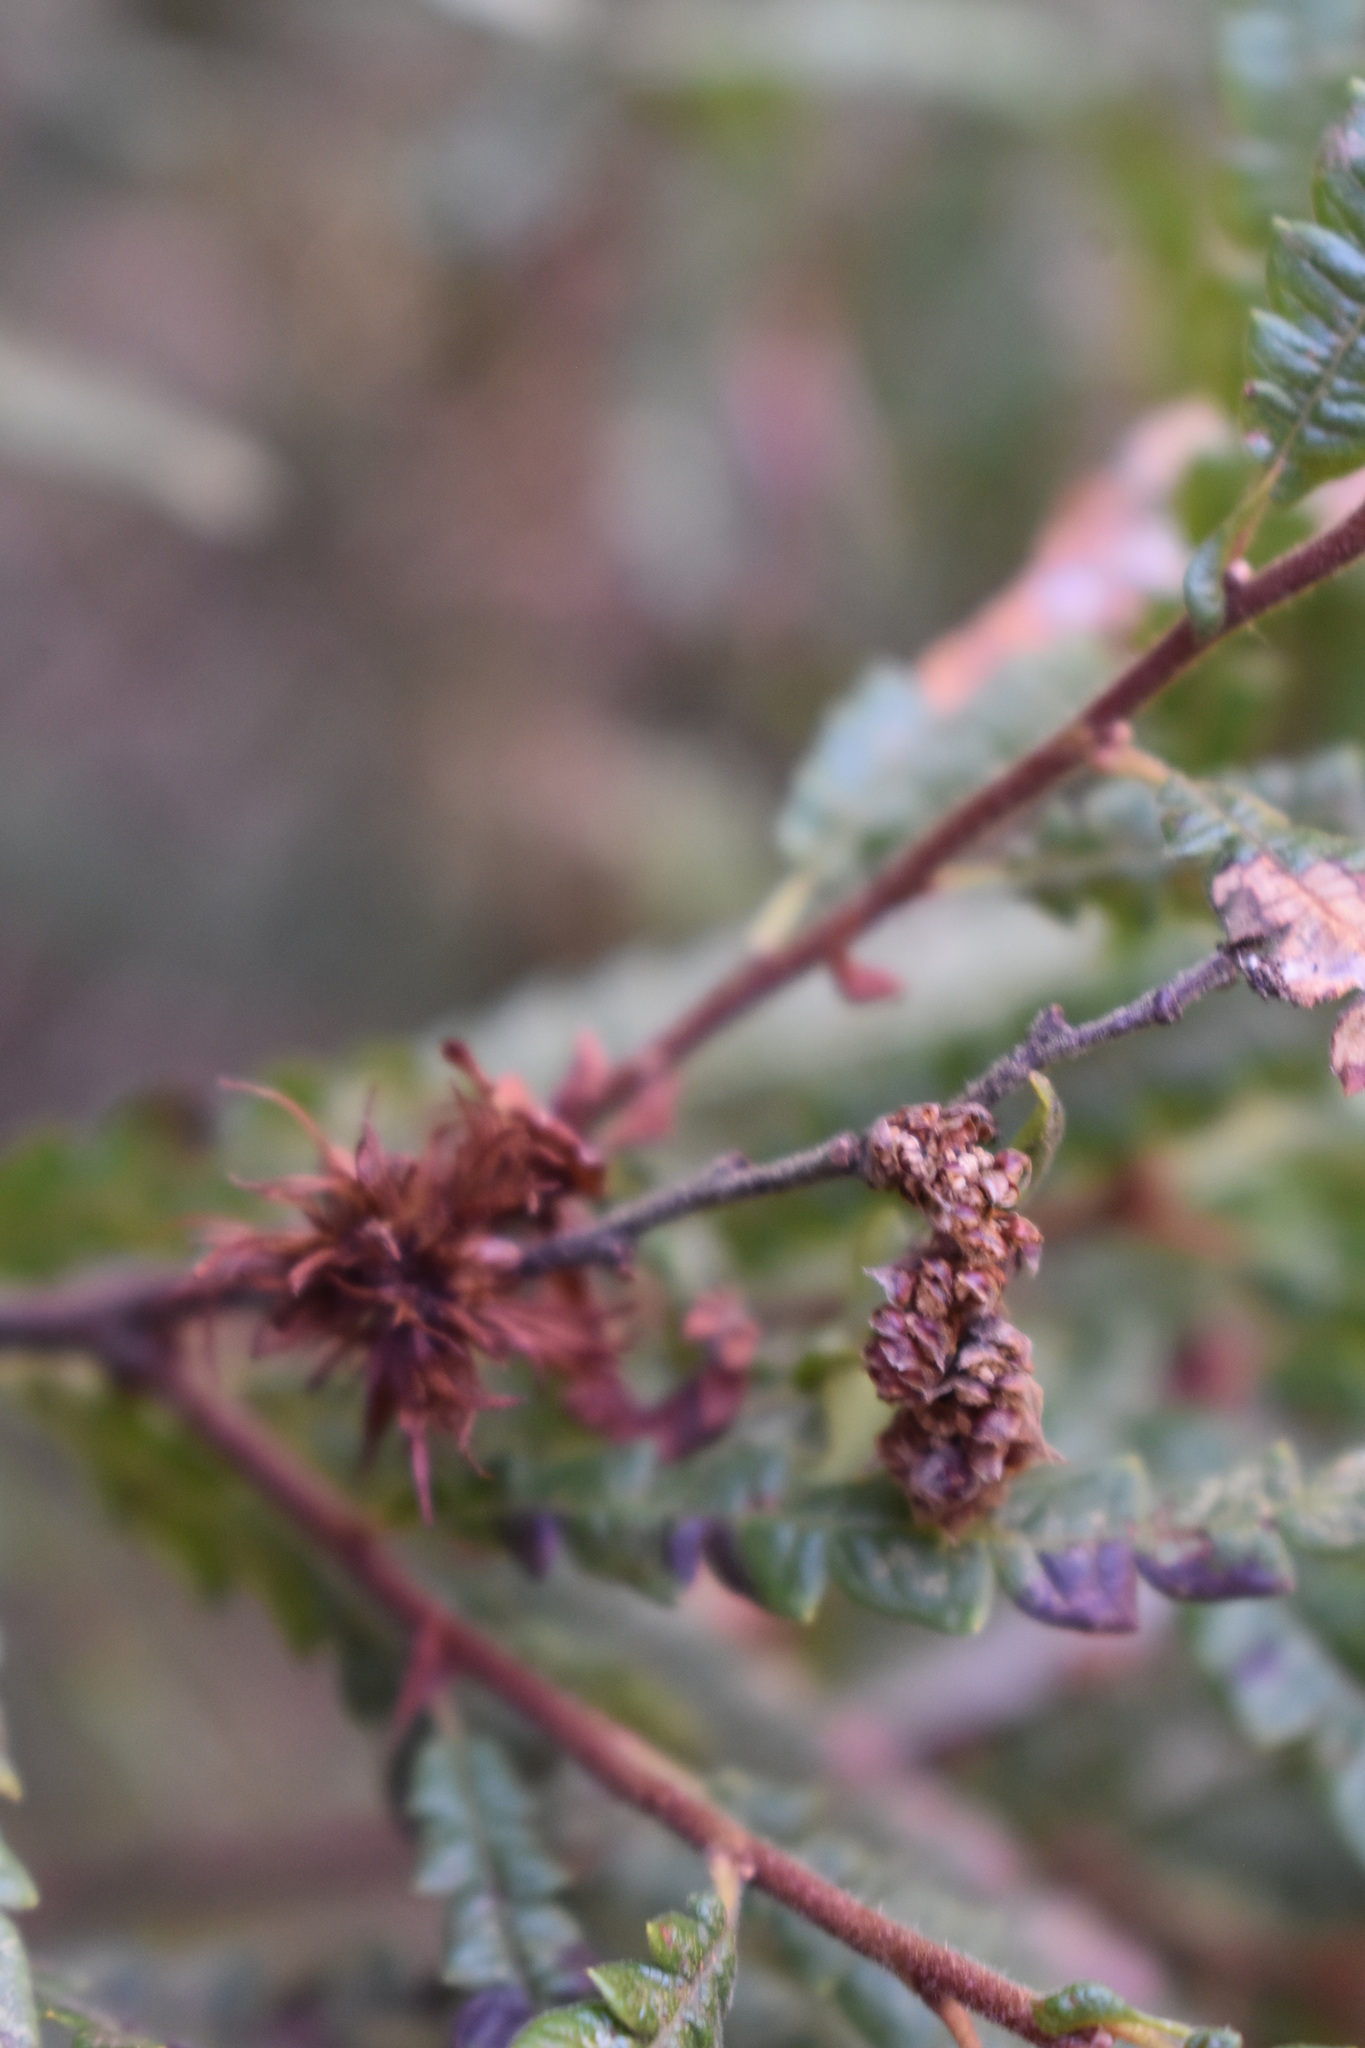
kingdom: Plantae
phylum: Tracheophyta
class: Magnoliopsida
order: Fagales
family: Myricaceae
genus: Comptonia
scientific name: Comptonia peregrina
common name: Sweet-fern
